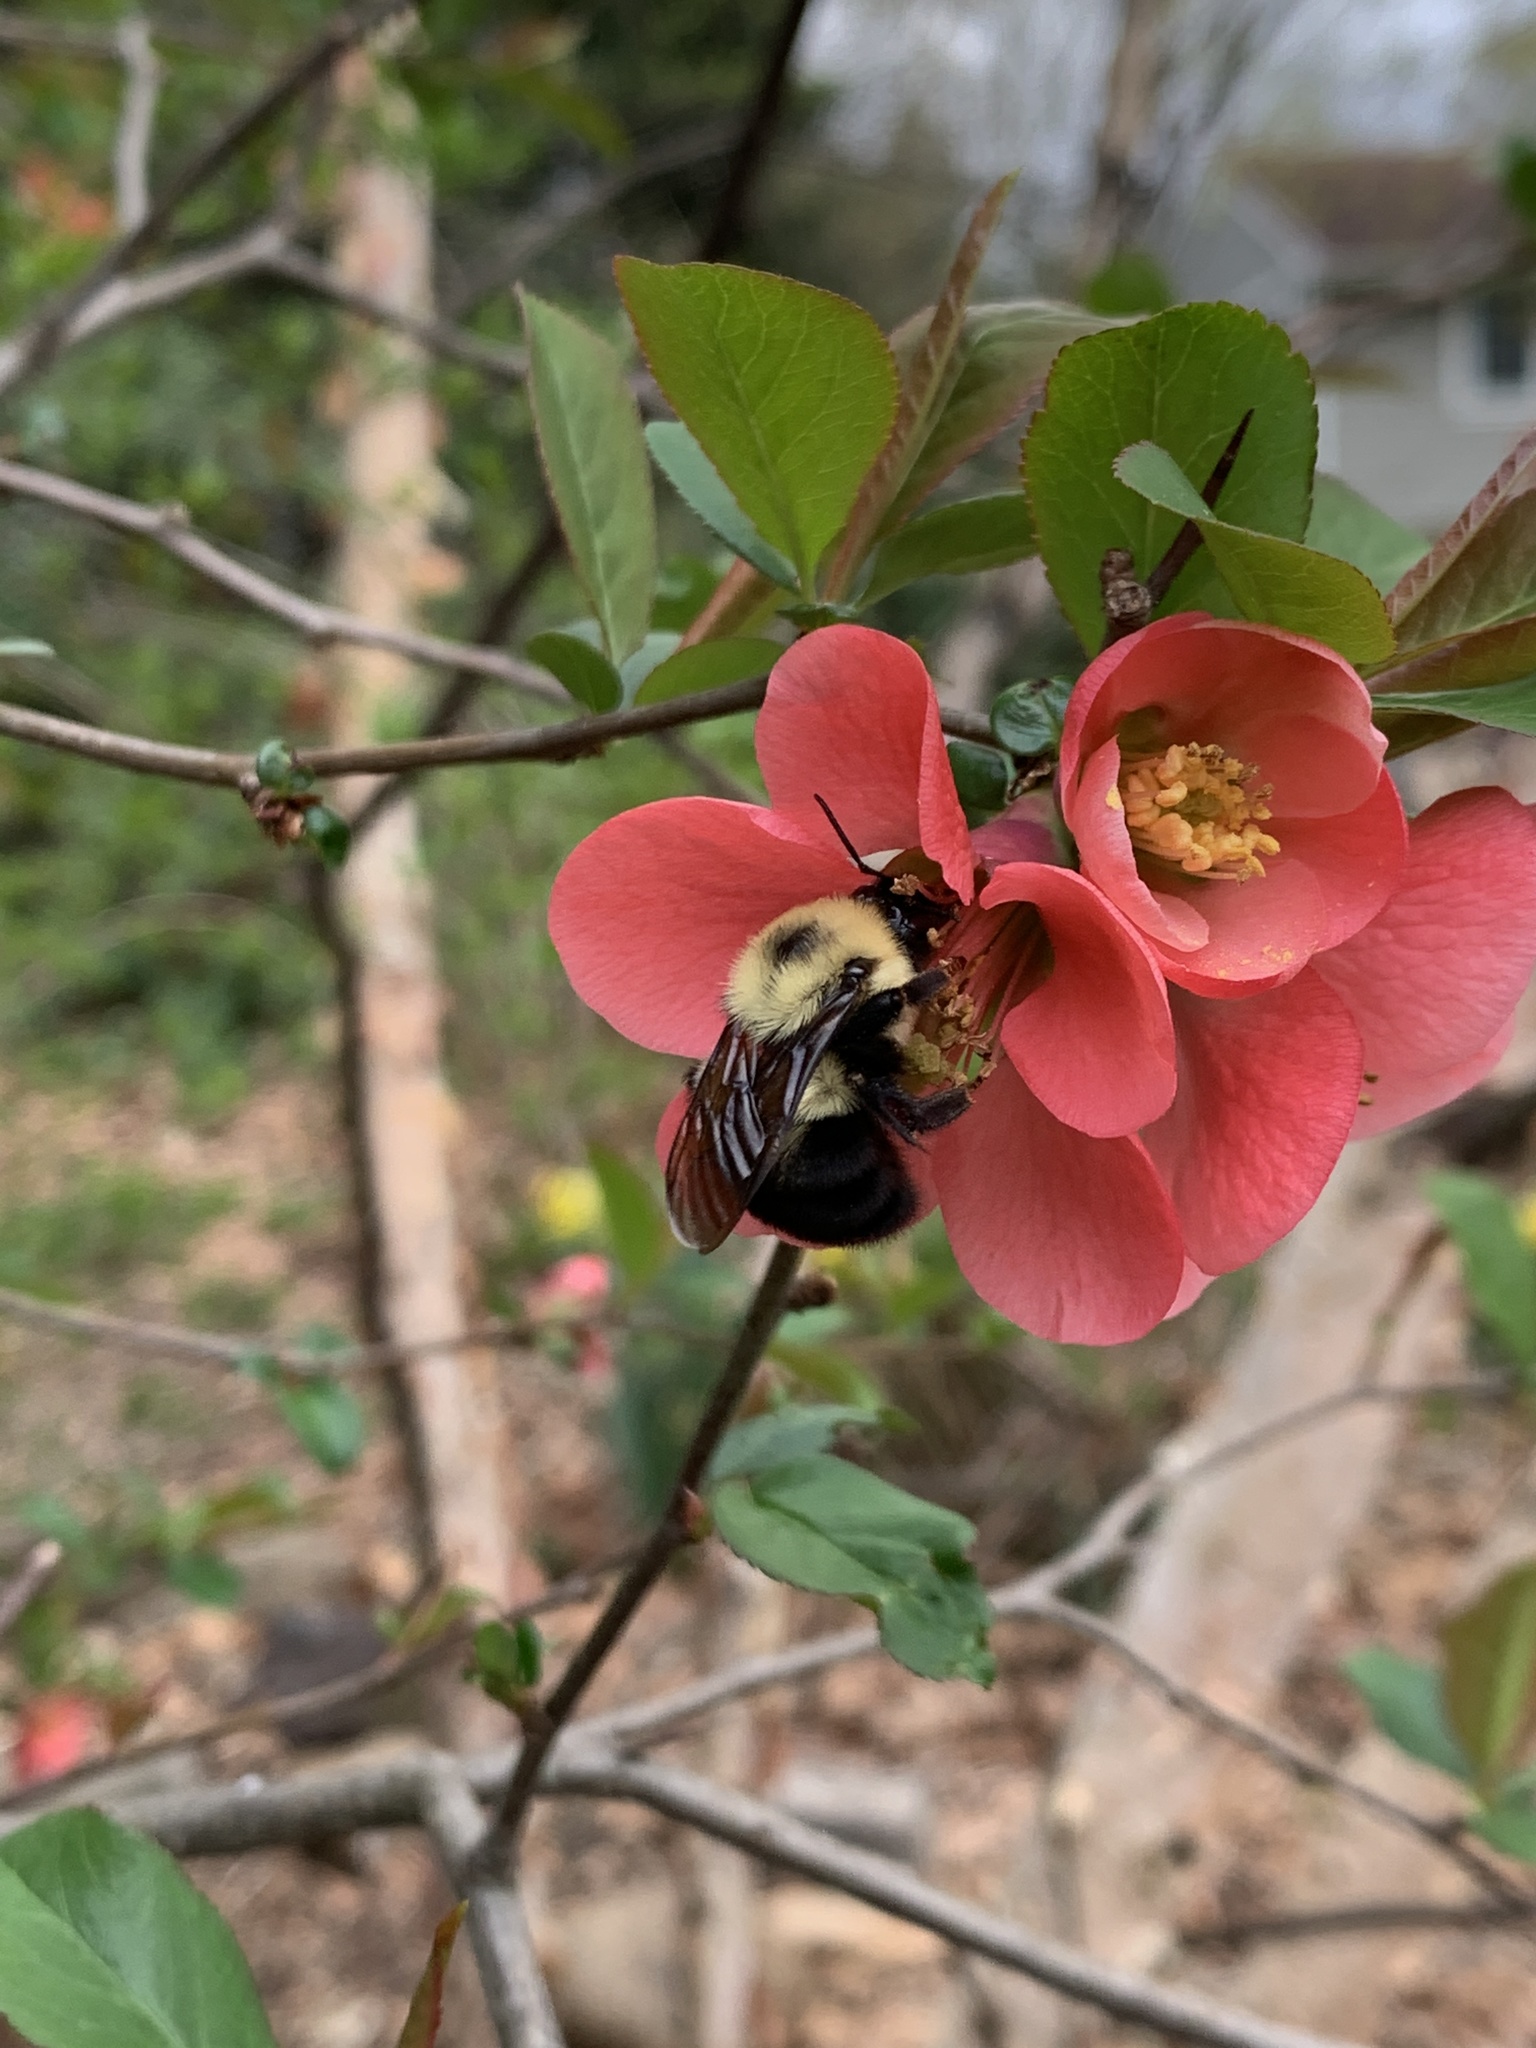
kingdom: Animalia
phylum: Arthropoda
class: Insecta
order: Hymenoptera
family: Apidae
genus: Bombus
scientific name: Bombus bimaculatus
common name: Two-spotted bumble bee
